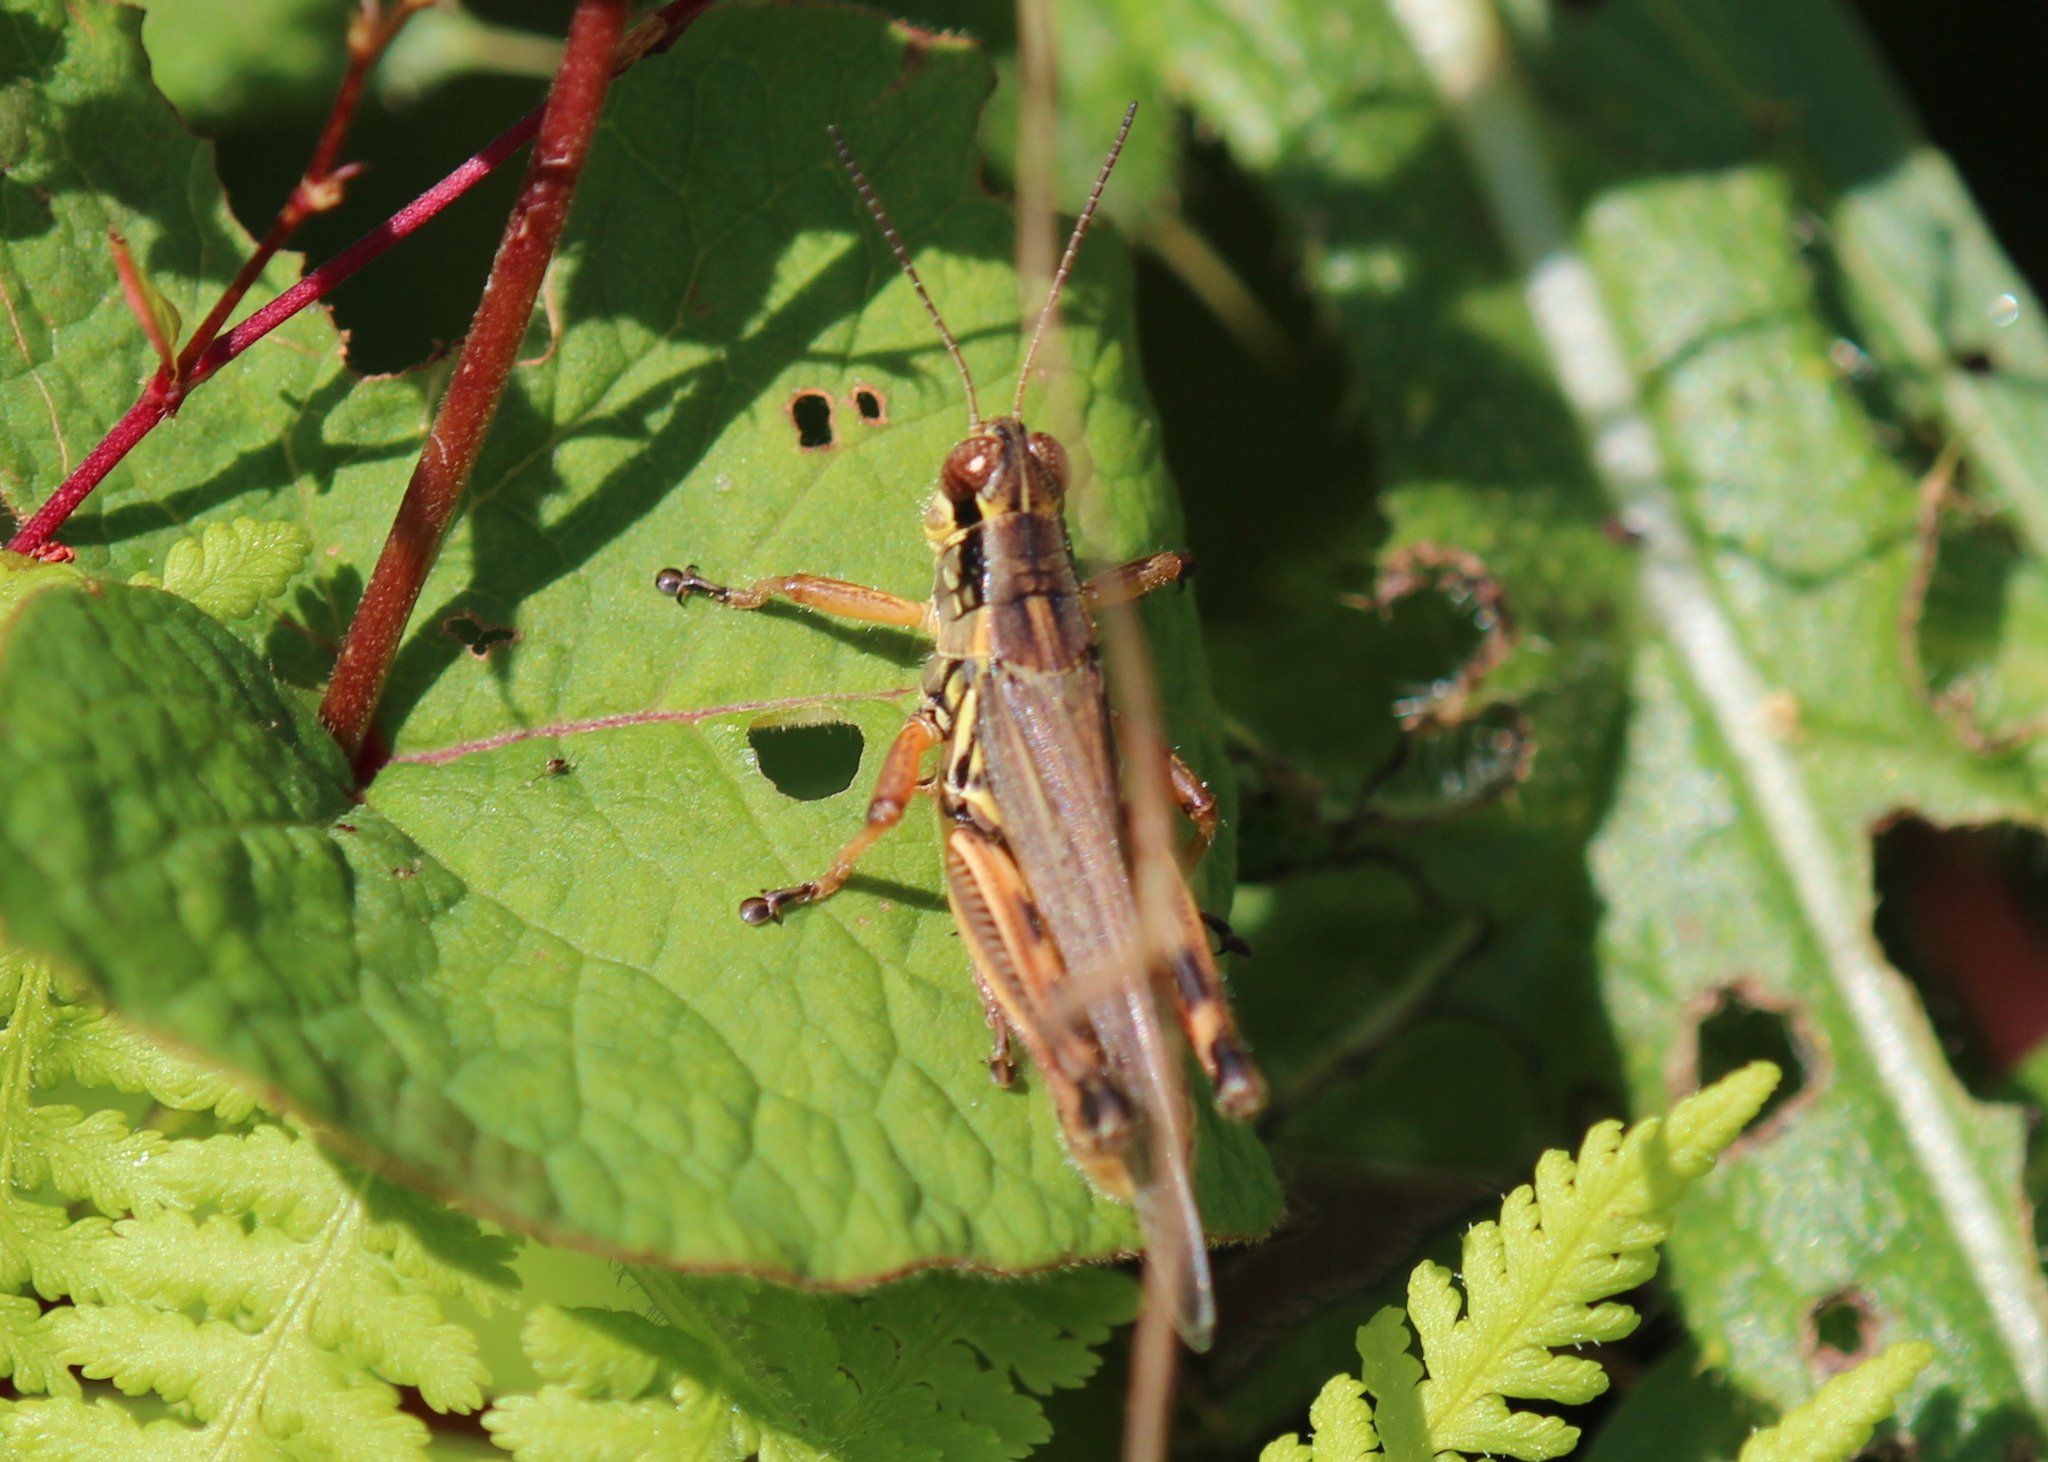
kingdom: Animalia
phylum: Arthropoda
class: Insecta
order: Orthoptera
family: Acrididae
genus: Melanoplus
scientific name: Melanoplus femurrubrum
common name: Red-legged grasshopper
